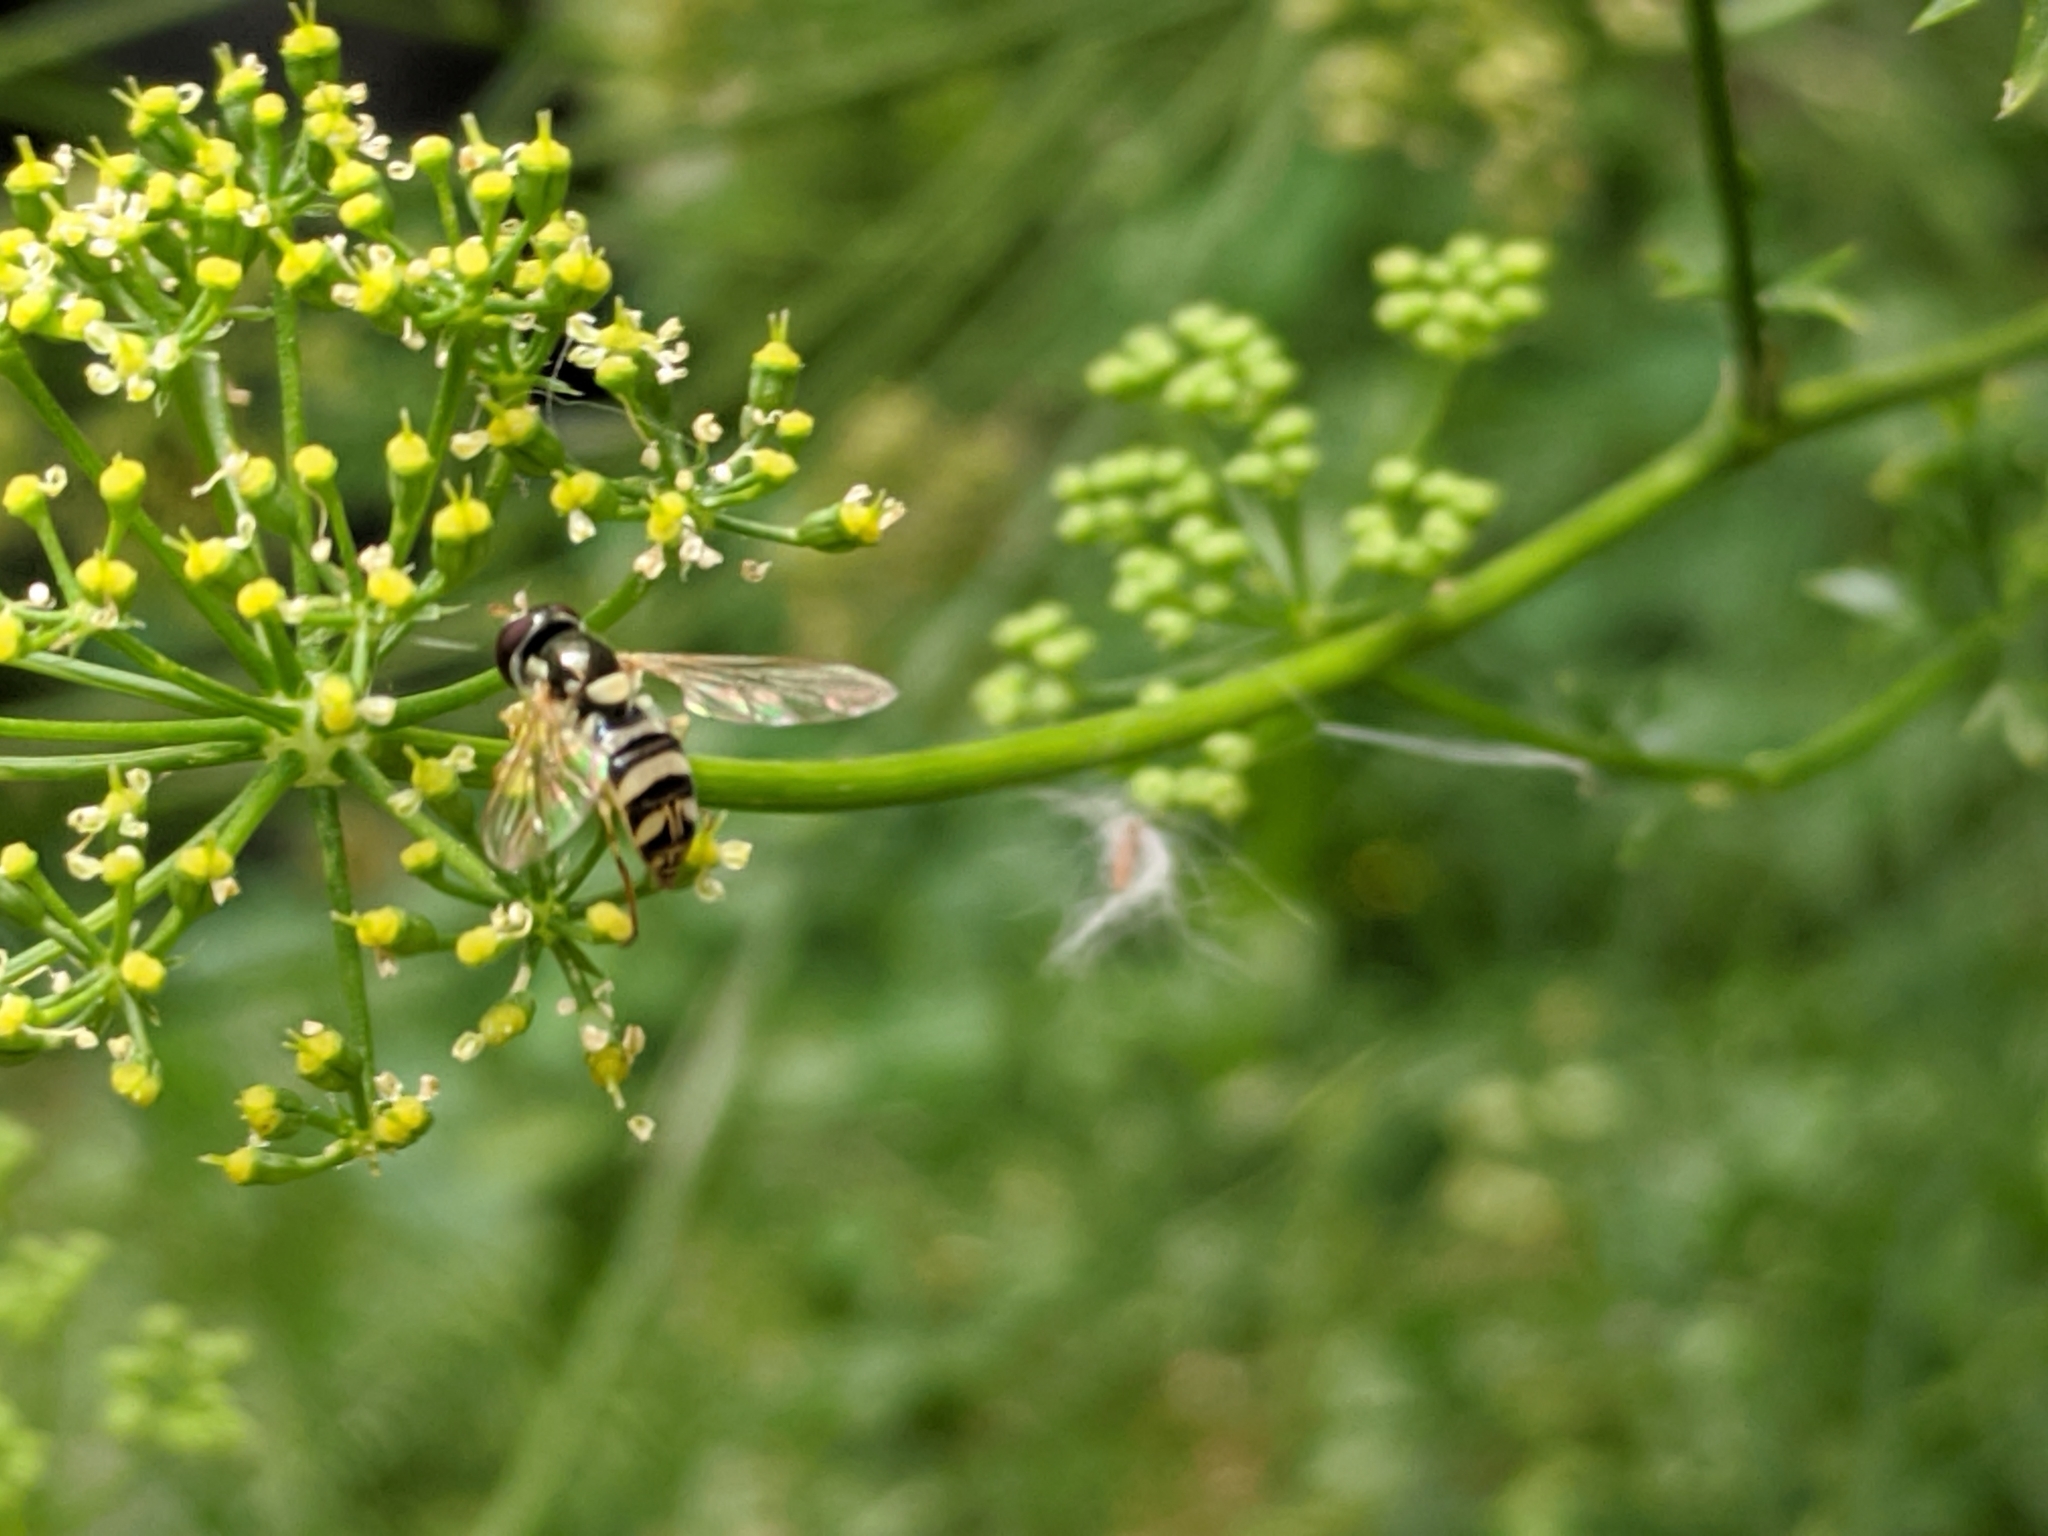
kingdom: Animalia
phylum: Arthropoda
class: Insecta
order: Diptera
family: Syrphidae
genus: Allograpta
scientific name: Allograpta exotica
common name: Syrphid fly
